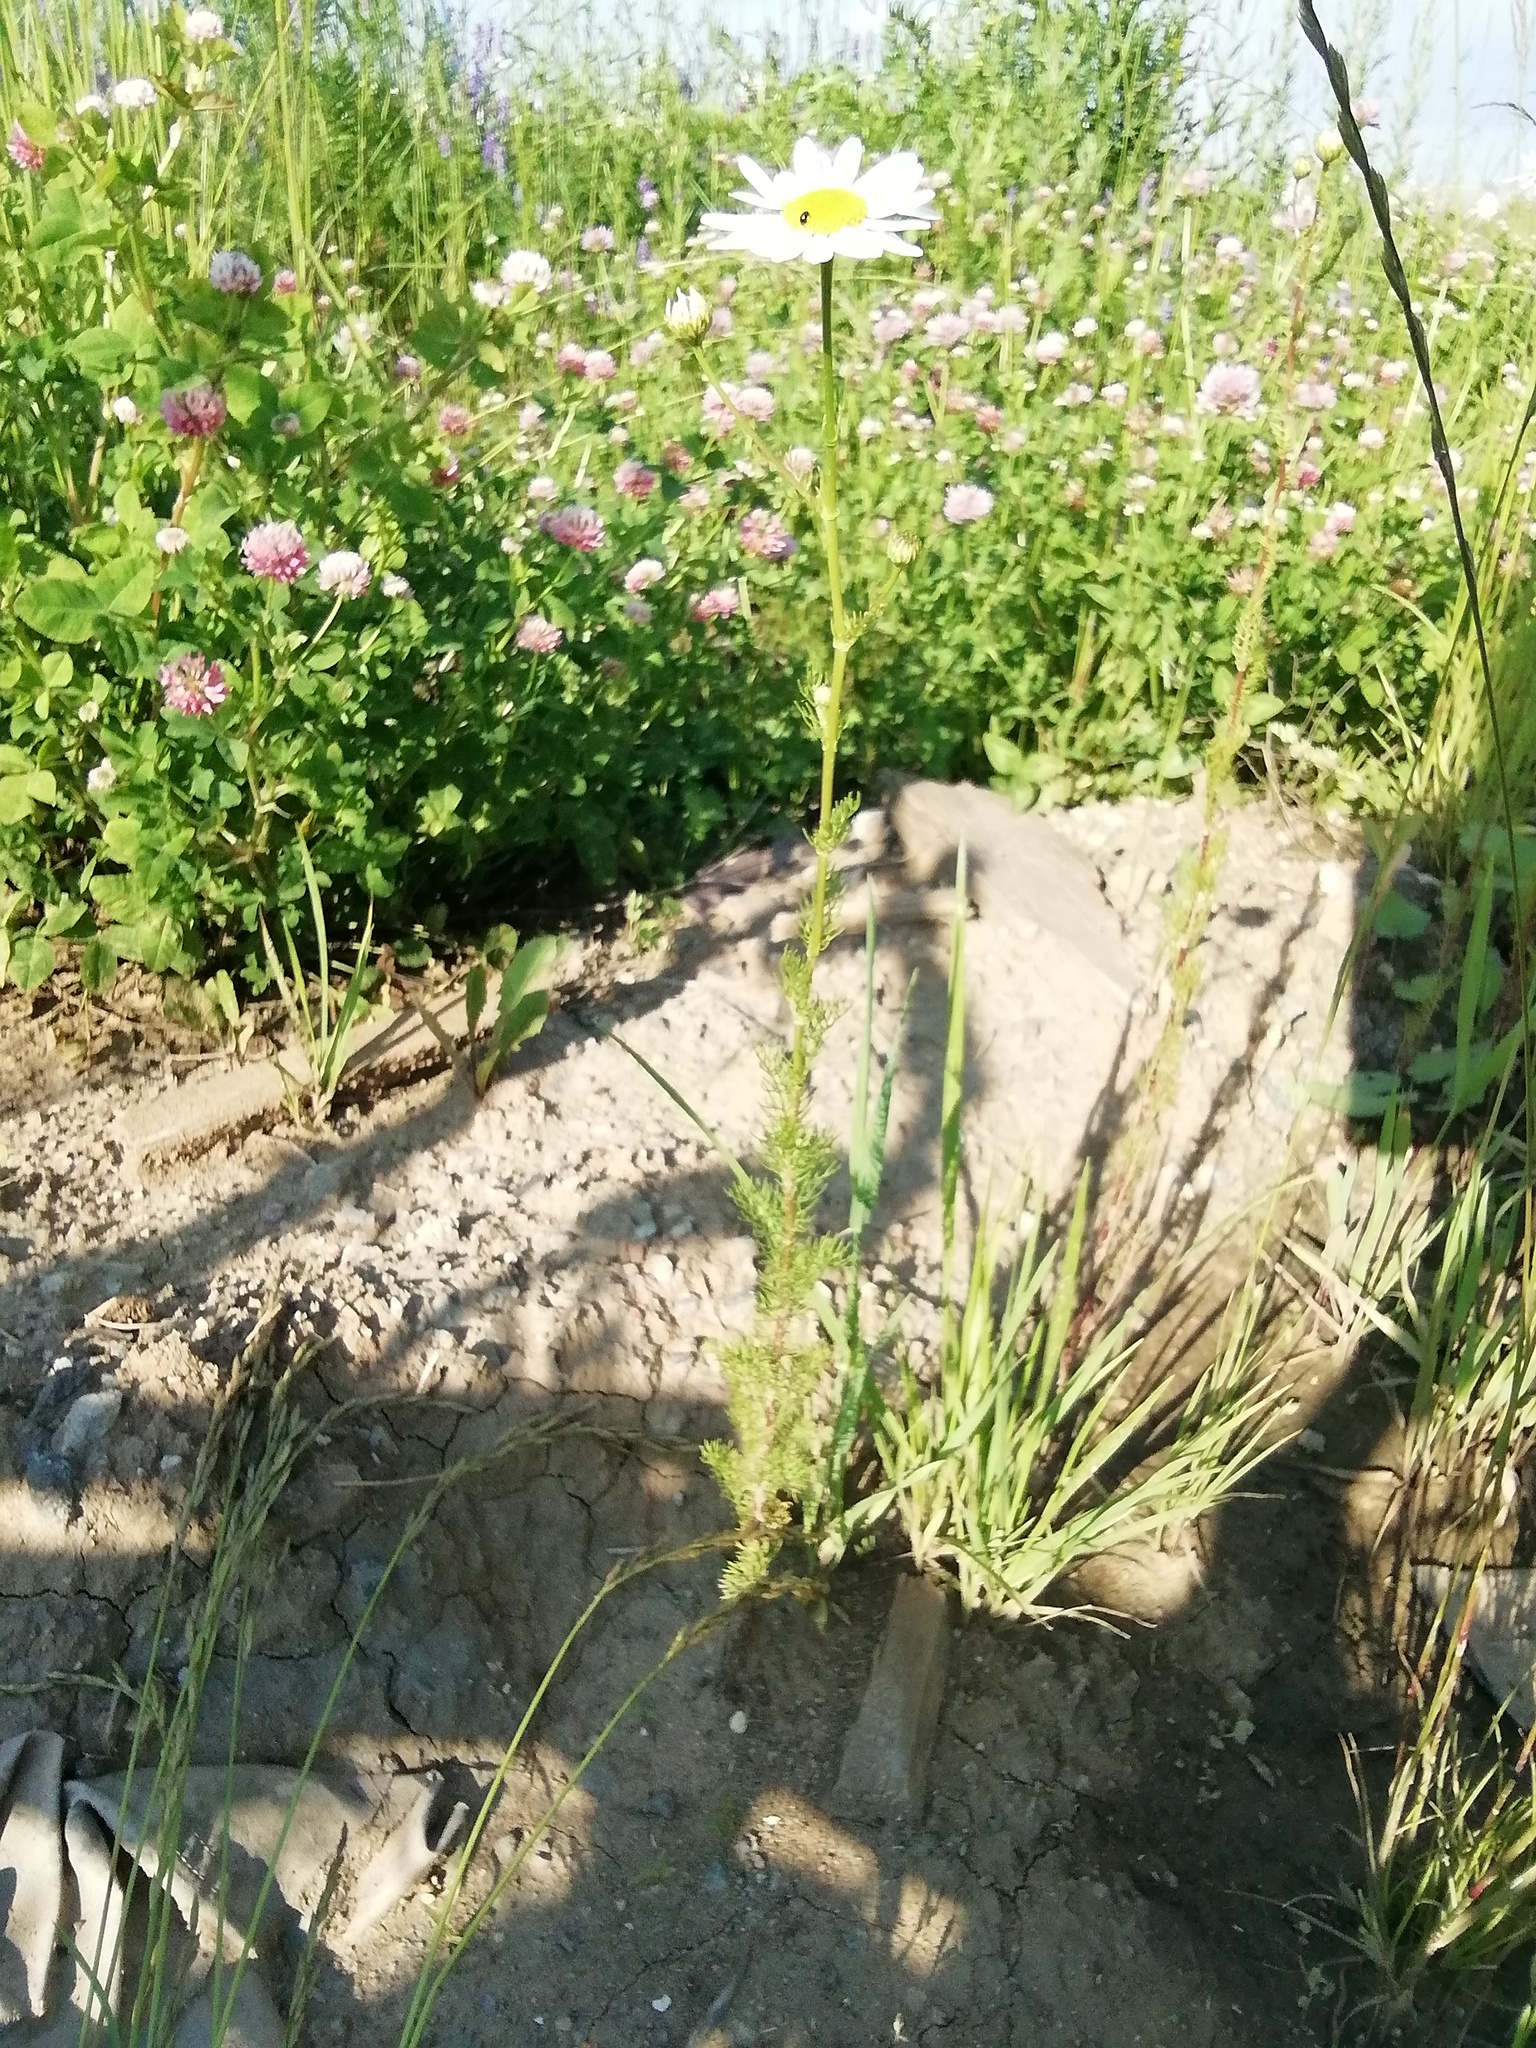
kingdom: Plantae
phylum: Tracheophyta
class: Magnoliopsida
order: Asterales
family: Asteraceae
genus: Tripleurospermum
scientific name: Tripleurospermum inodorum
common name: Scentless mayweed
